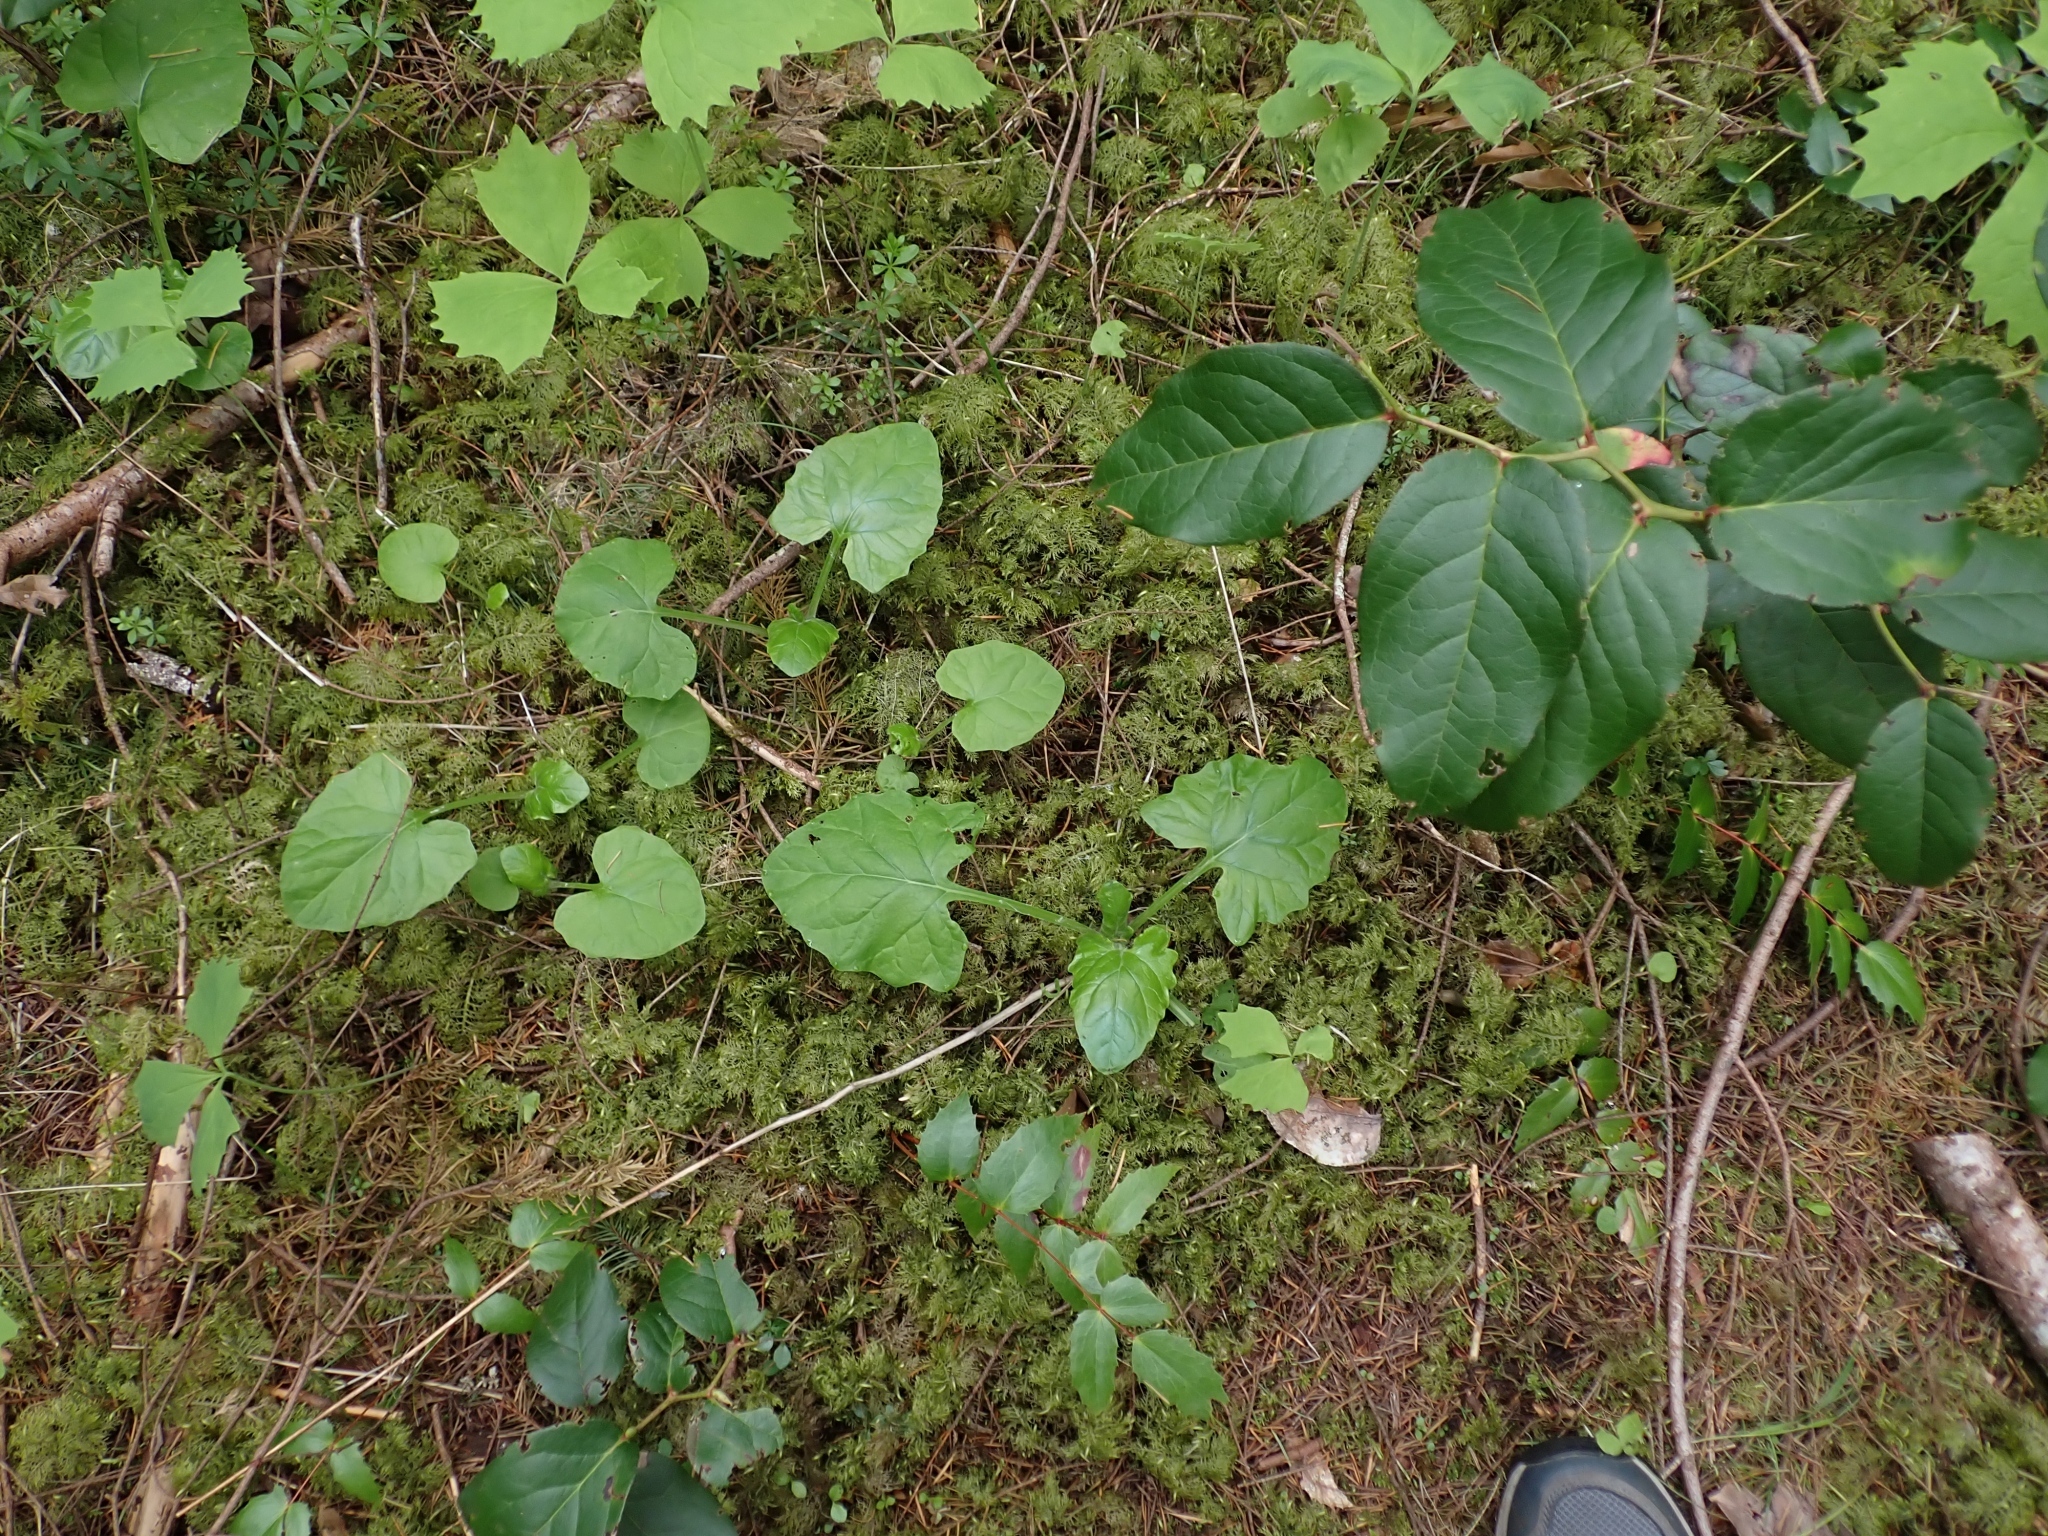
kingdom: Plantae
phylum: Tracheophyta
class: Magnoliopsida
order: Asterales
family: Asteraceae
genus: Adenocaulon
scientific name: Adenocaulon bicolor
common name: Trailplant
